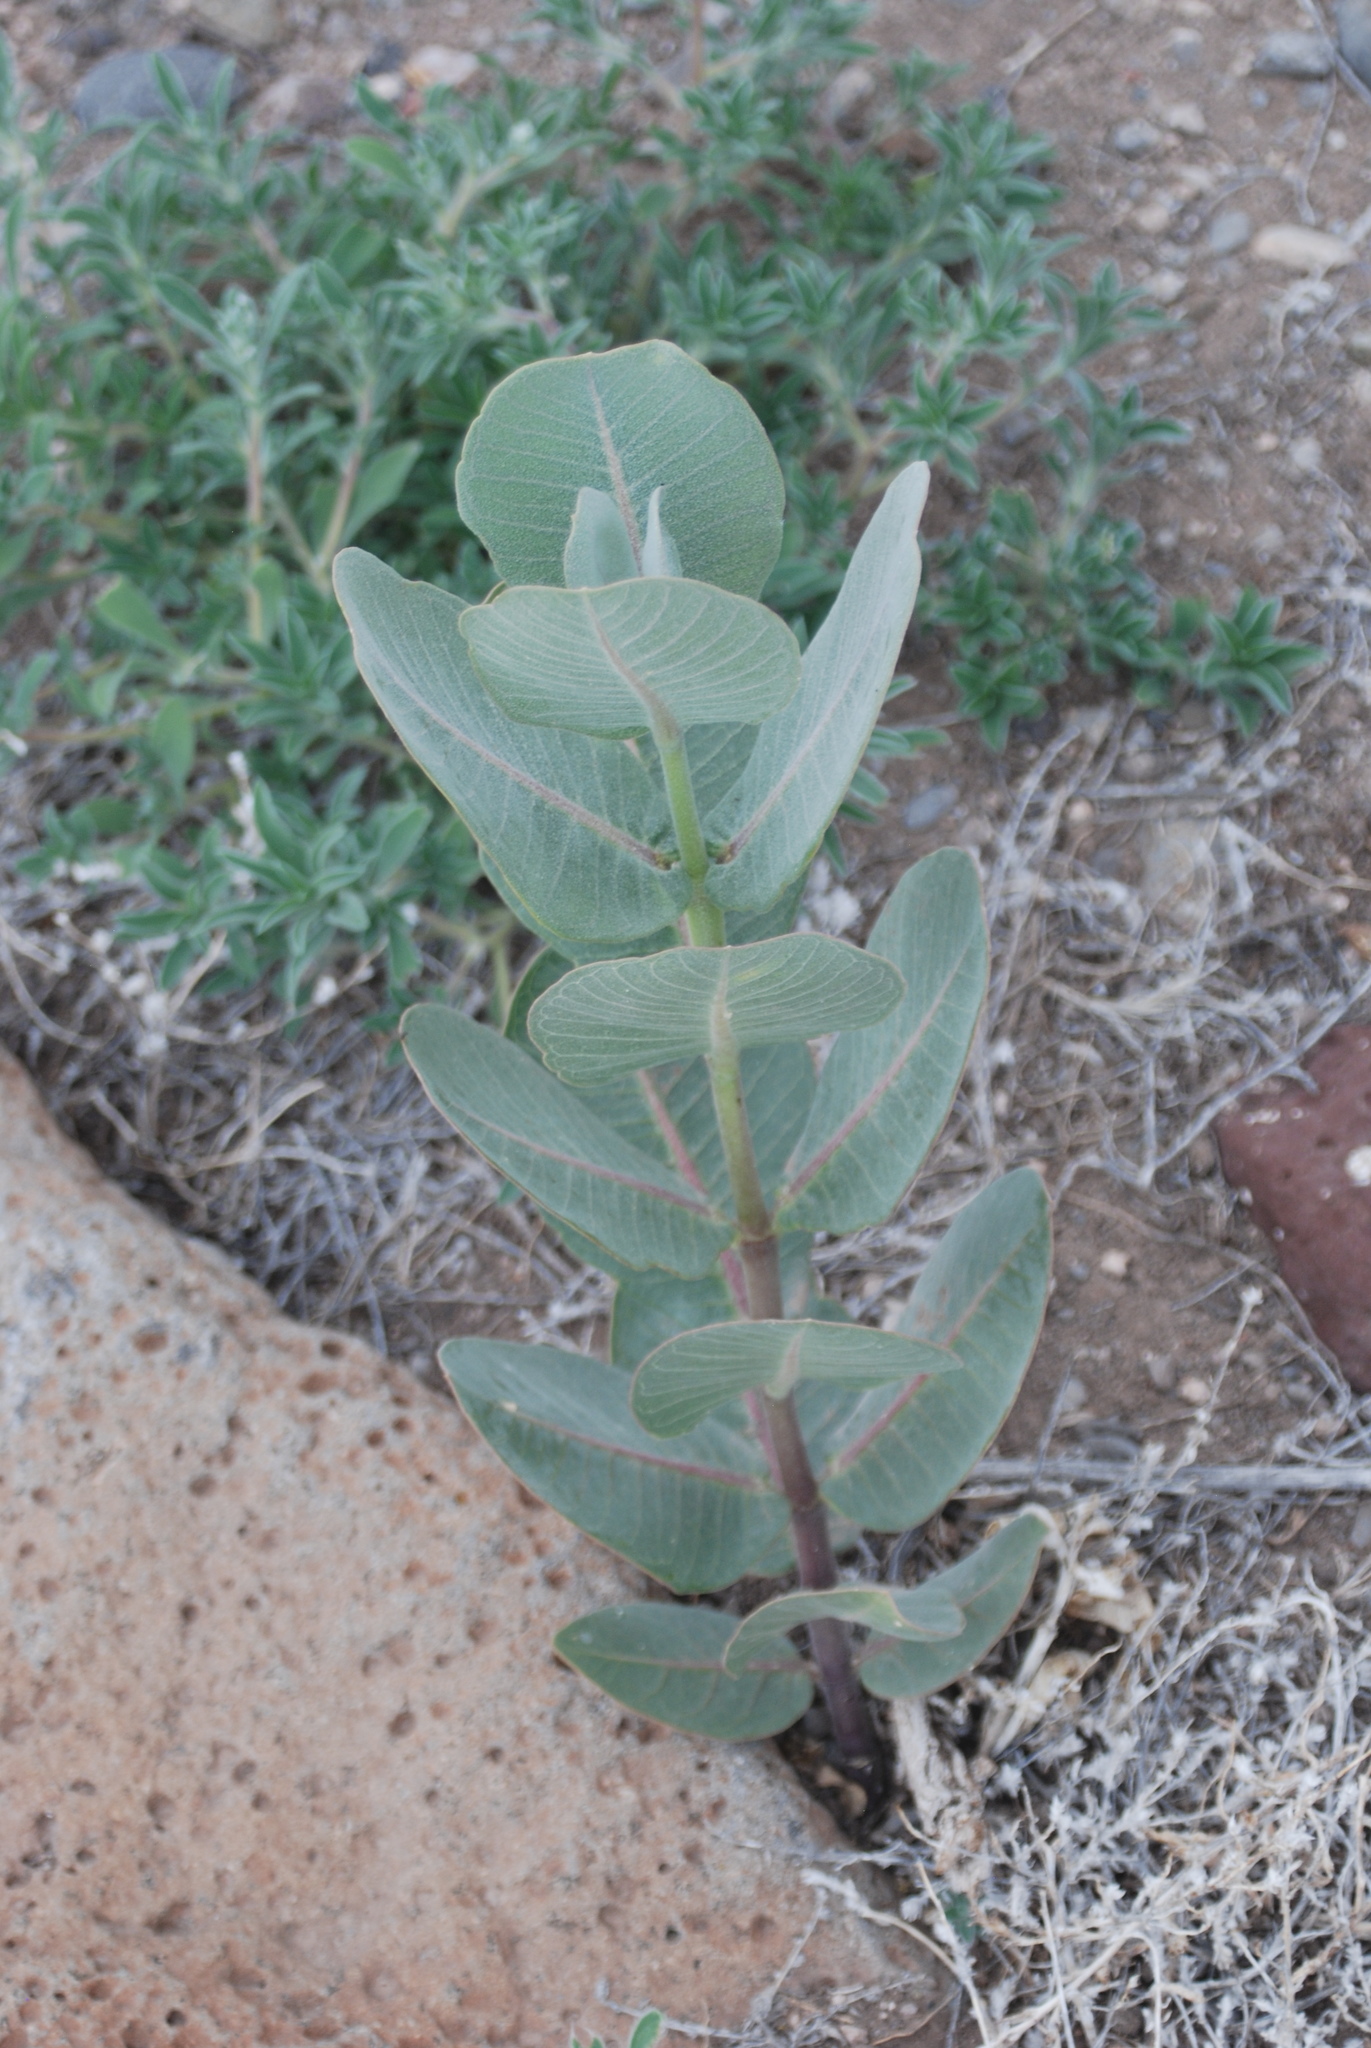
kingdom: Plantae
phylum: Tracheophyta
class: Magnoliopsida
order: Gentianales
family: Apocynaceae
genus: Asclepias
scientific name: Asclepias latifolia
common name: Broadleaf milkweed
